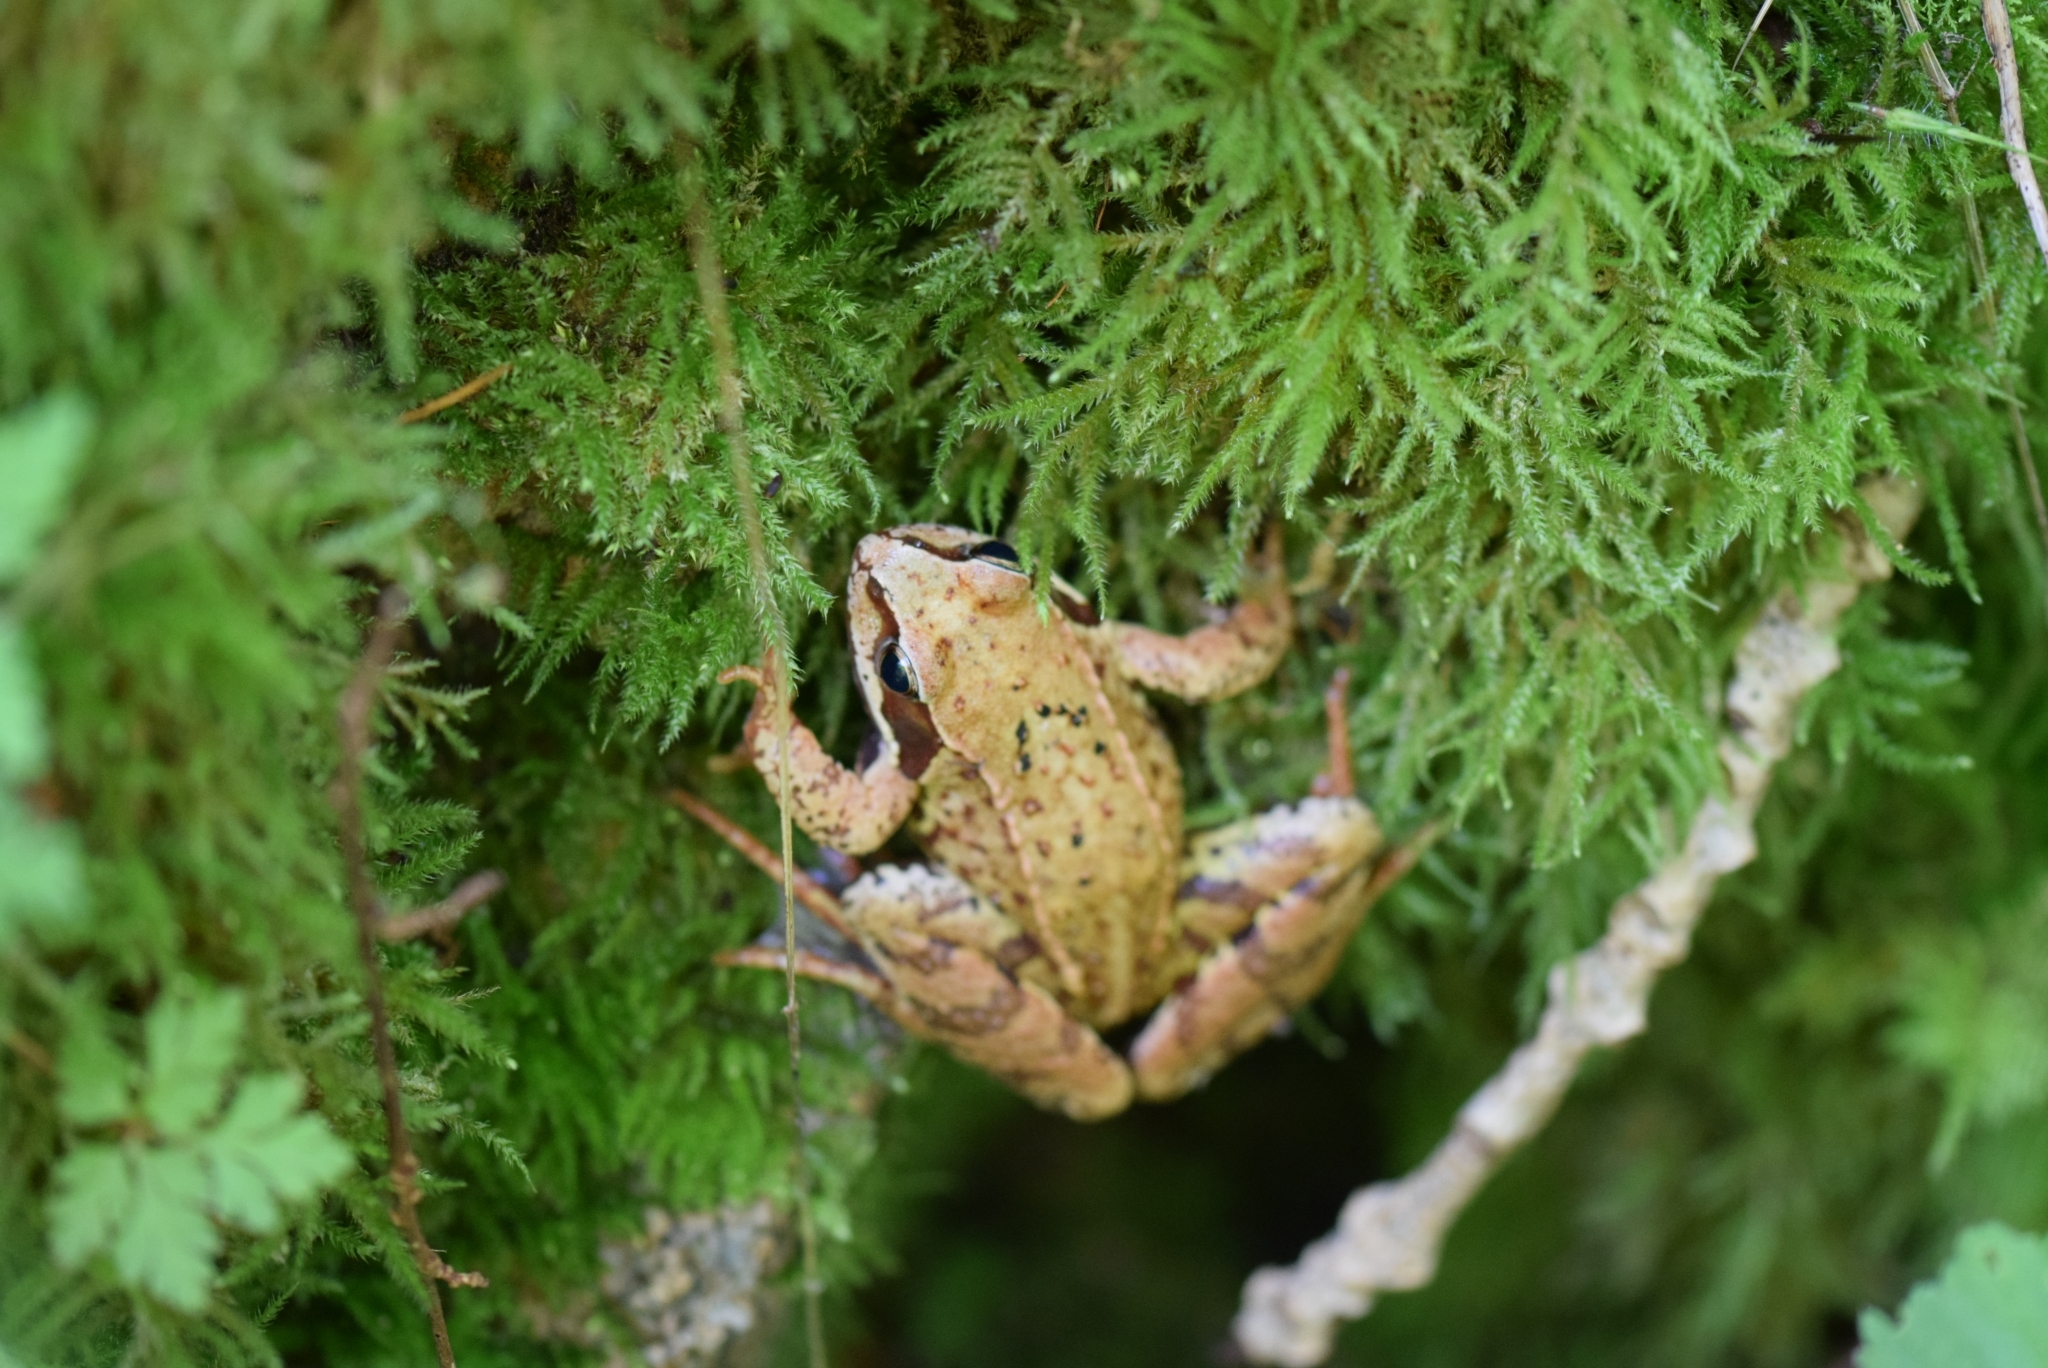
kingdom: Animalia
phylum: Chordata
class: Amphibia
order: Anura
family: Ranidae
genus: Rana
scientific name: Rana temporaria
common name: Common frog
